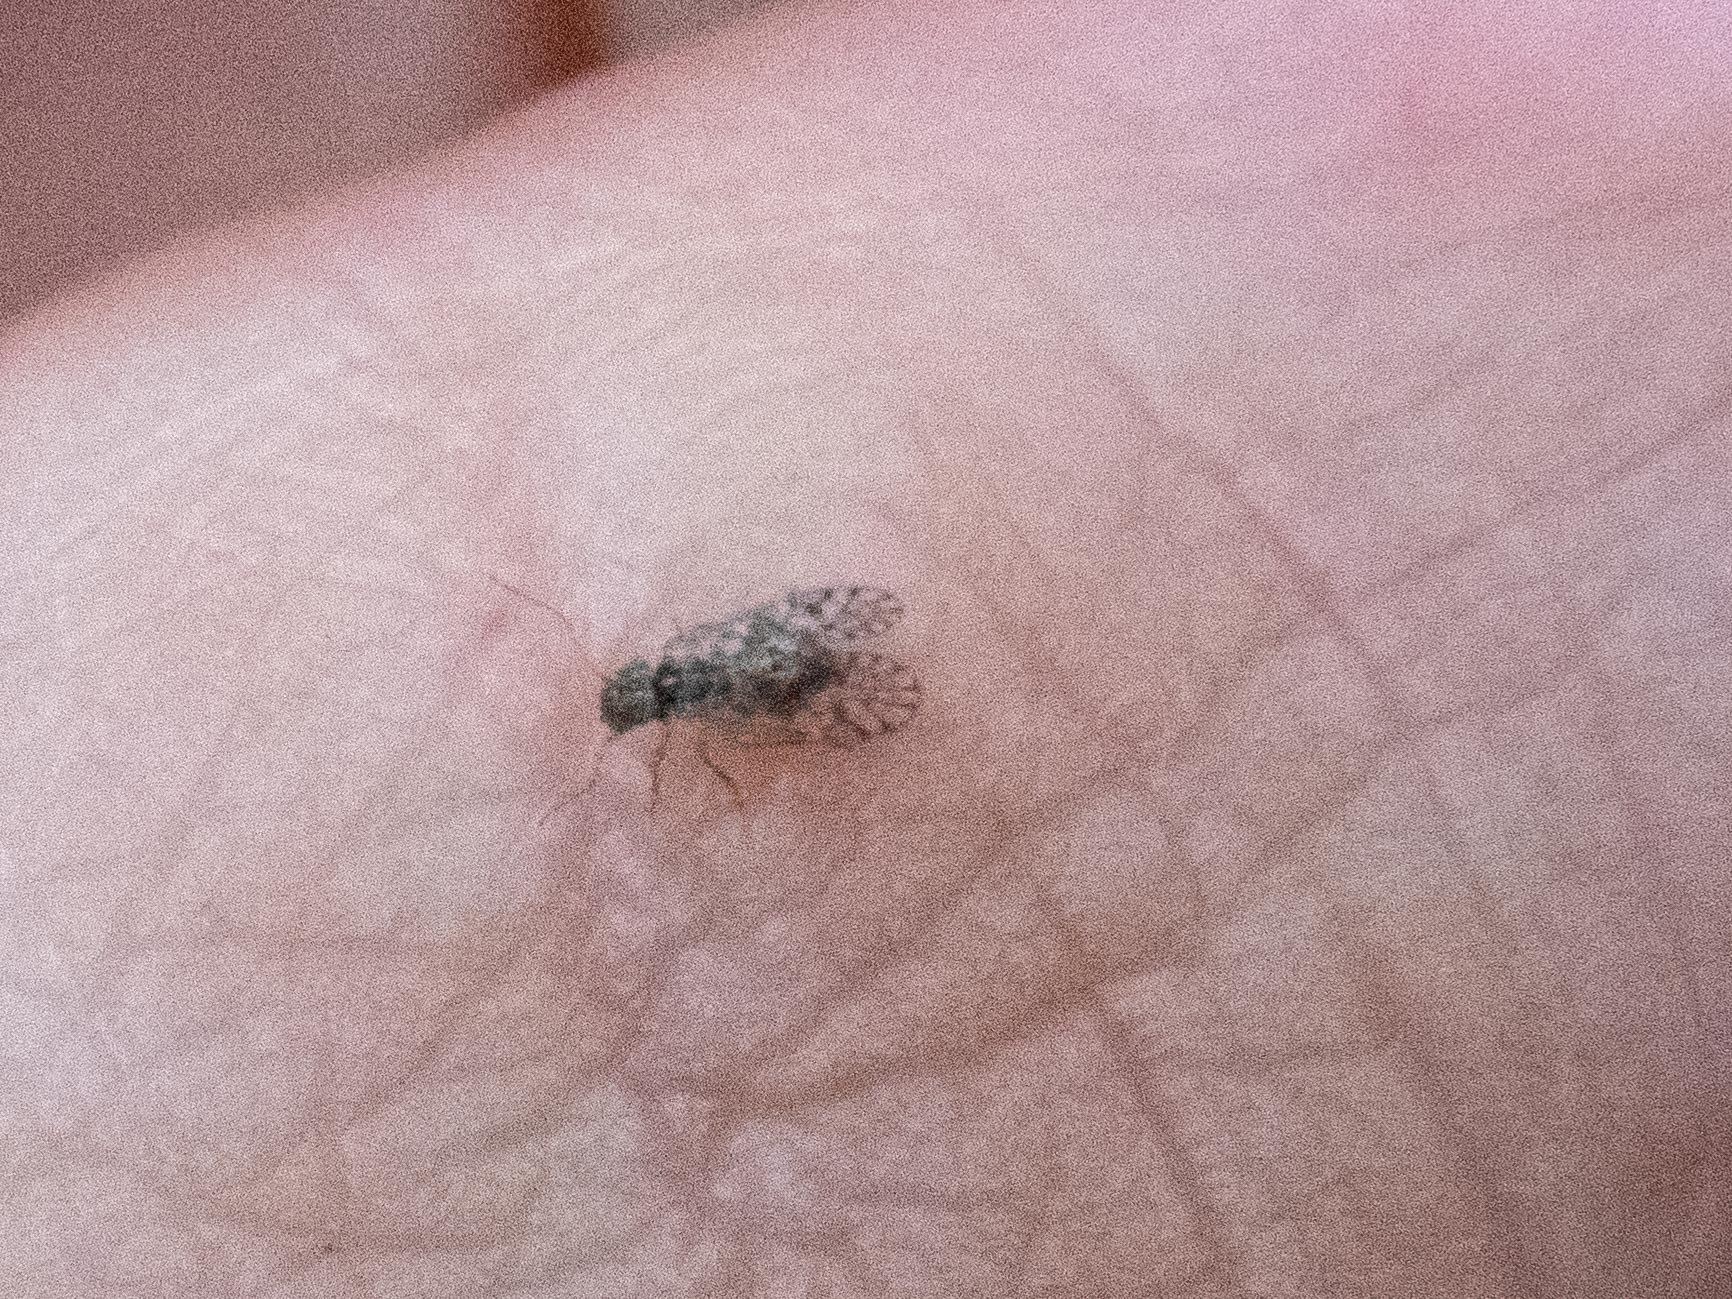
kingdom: Animalia
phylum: Arthropoda
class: Insecta
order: Psocodea
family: Philotarsidae
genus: Aaroniella
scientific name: Aaroniella badonneli
